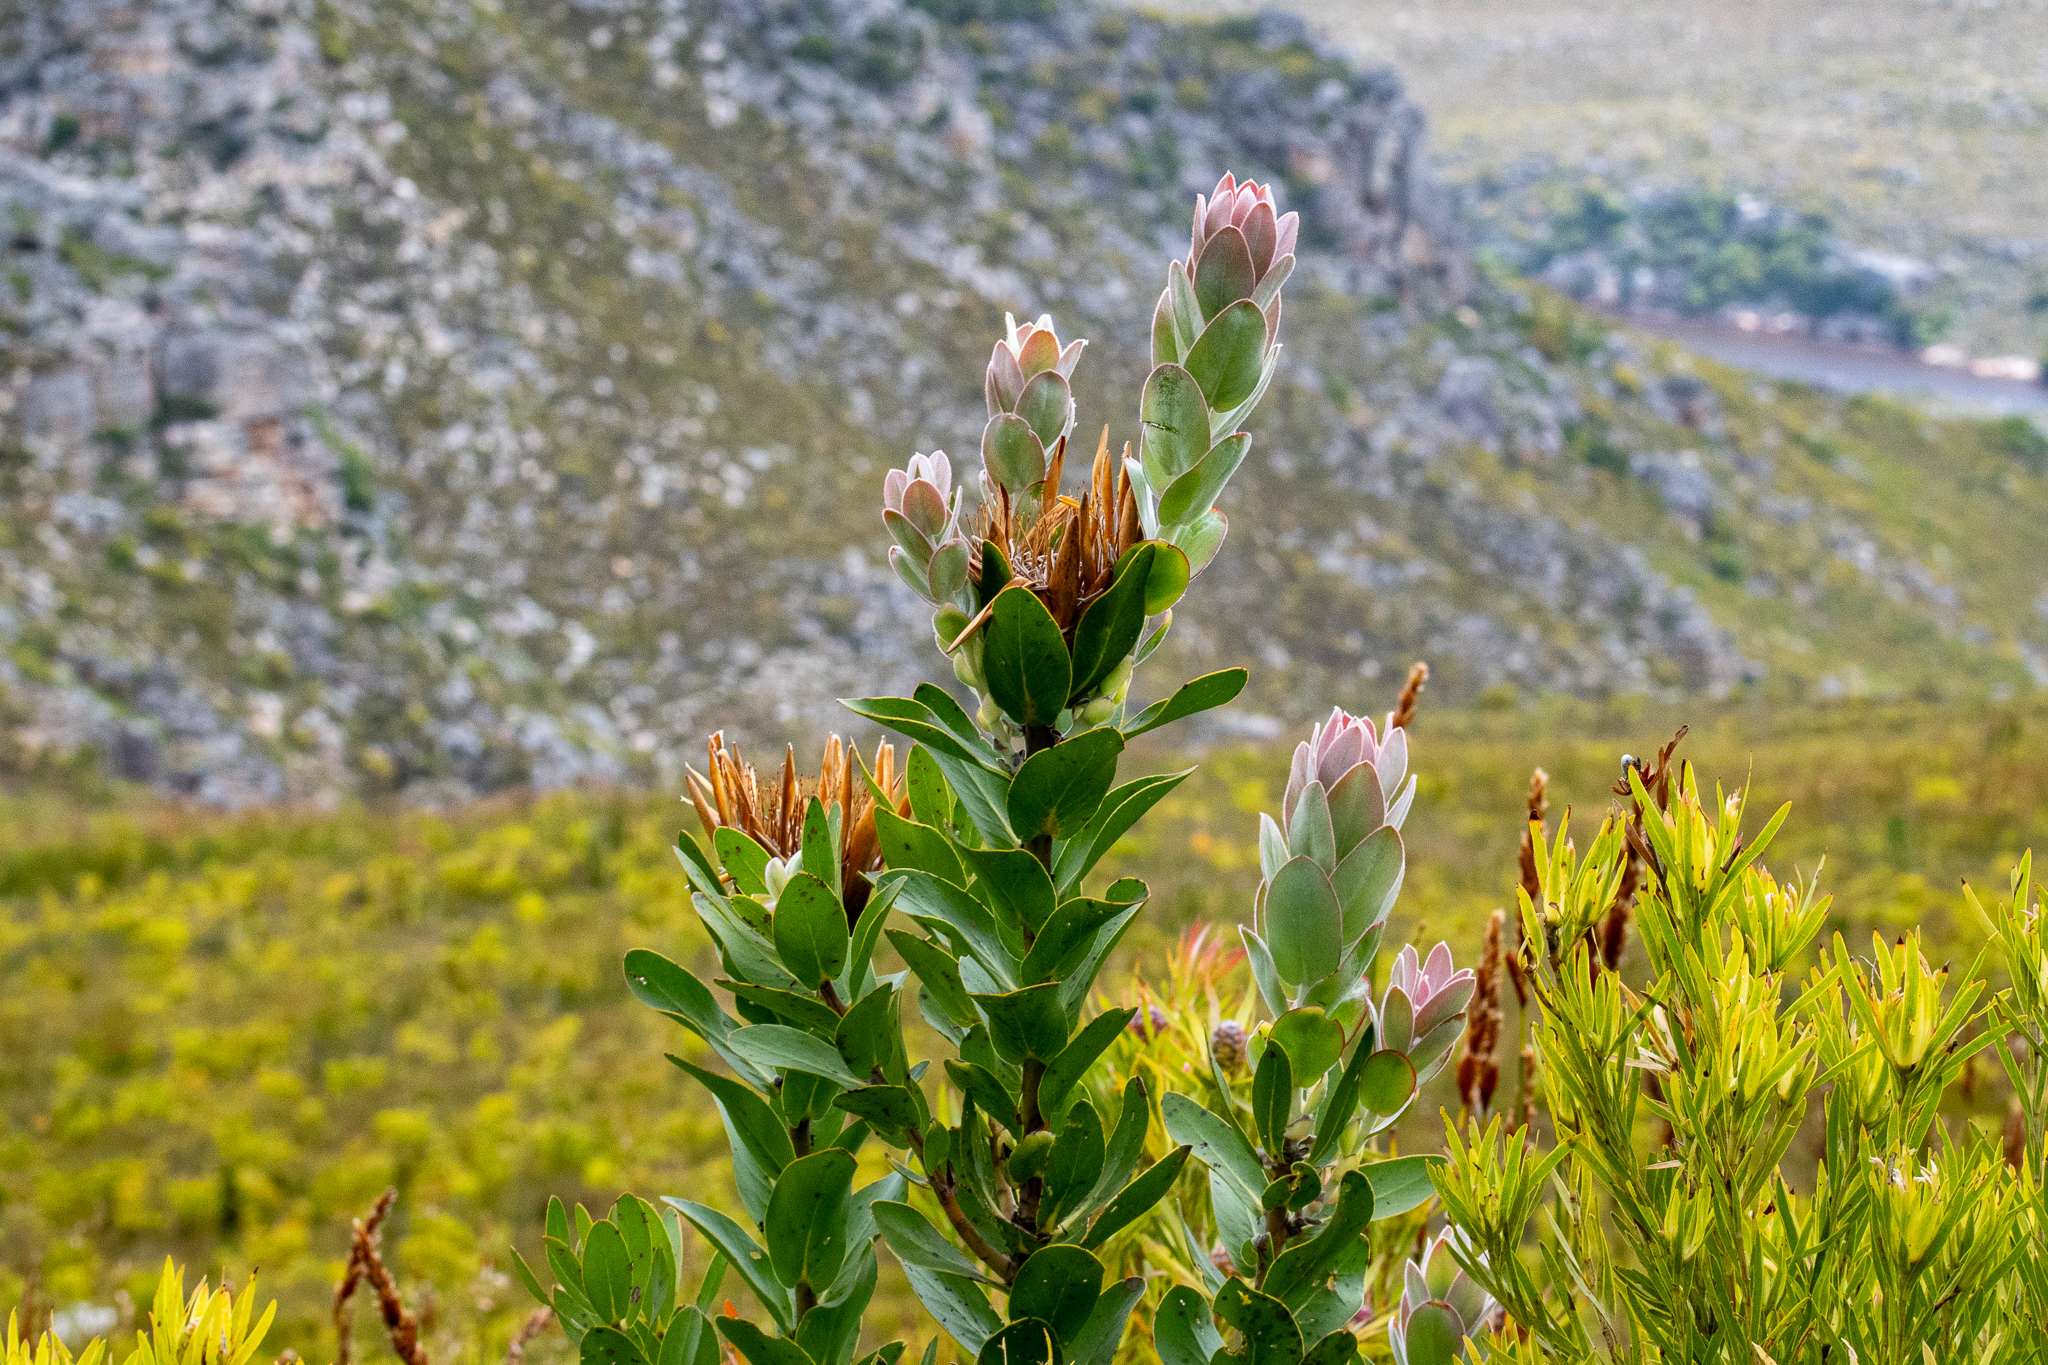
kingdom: Plantae
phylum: Tracheophyta
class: Magnoliopsida
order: Proteales
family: Proteaceae
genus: Protea
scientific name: Protea compacta
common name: Bot river protea
